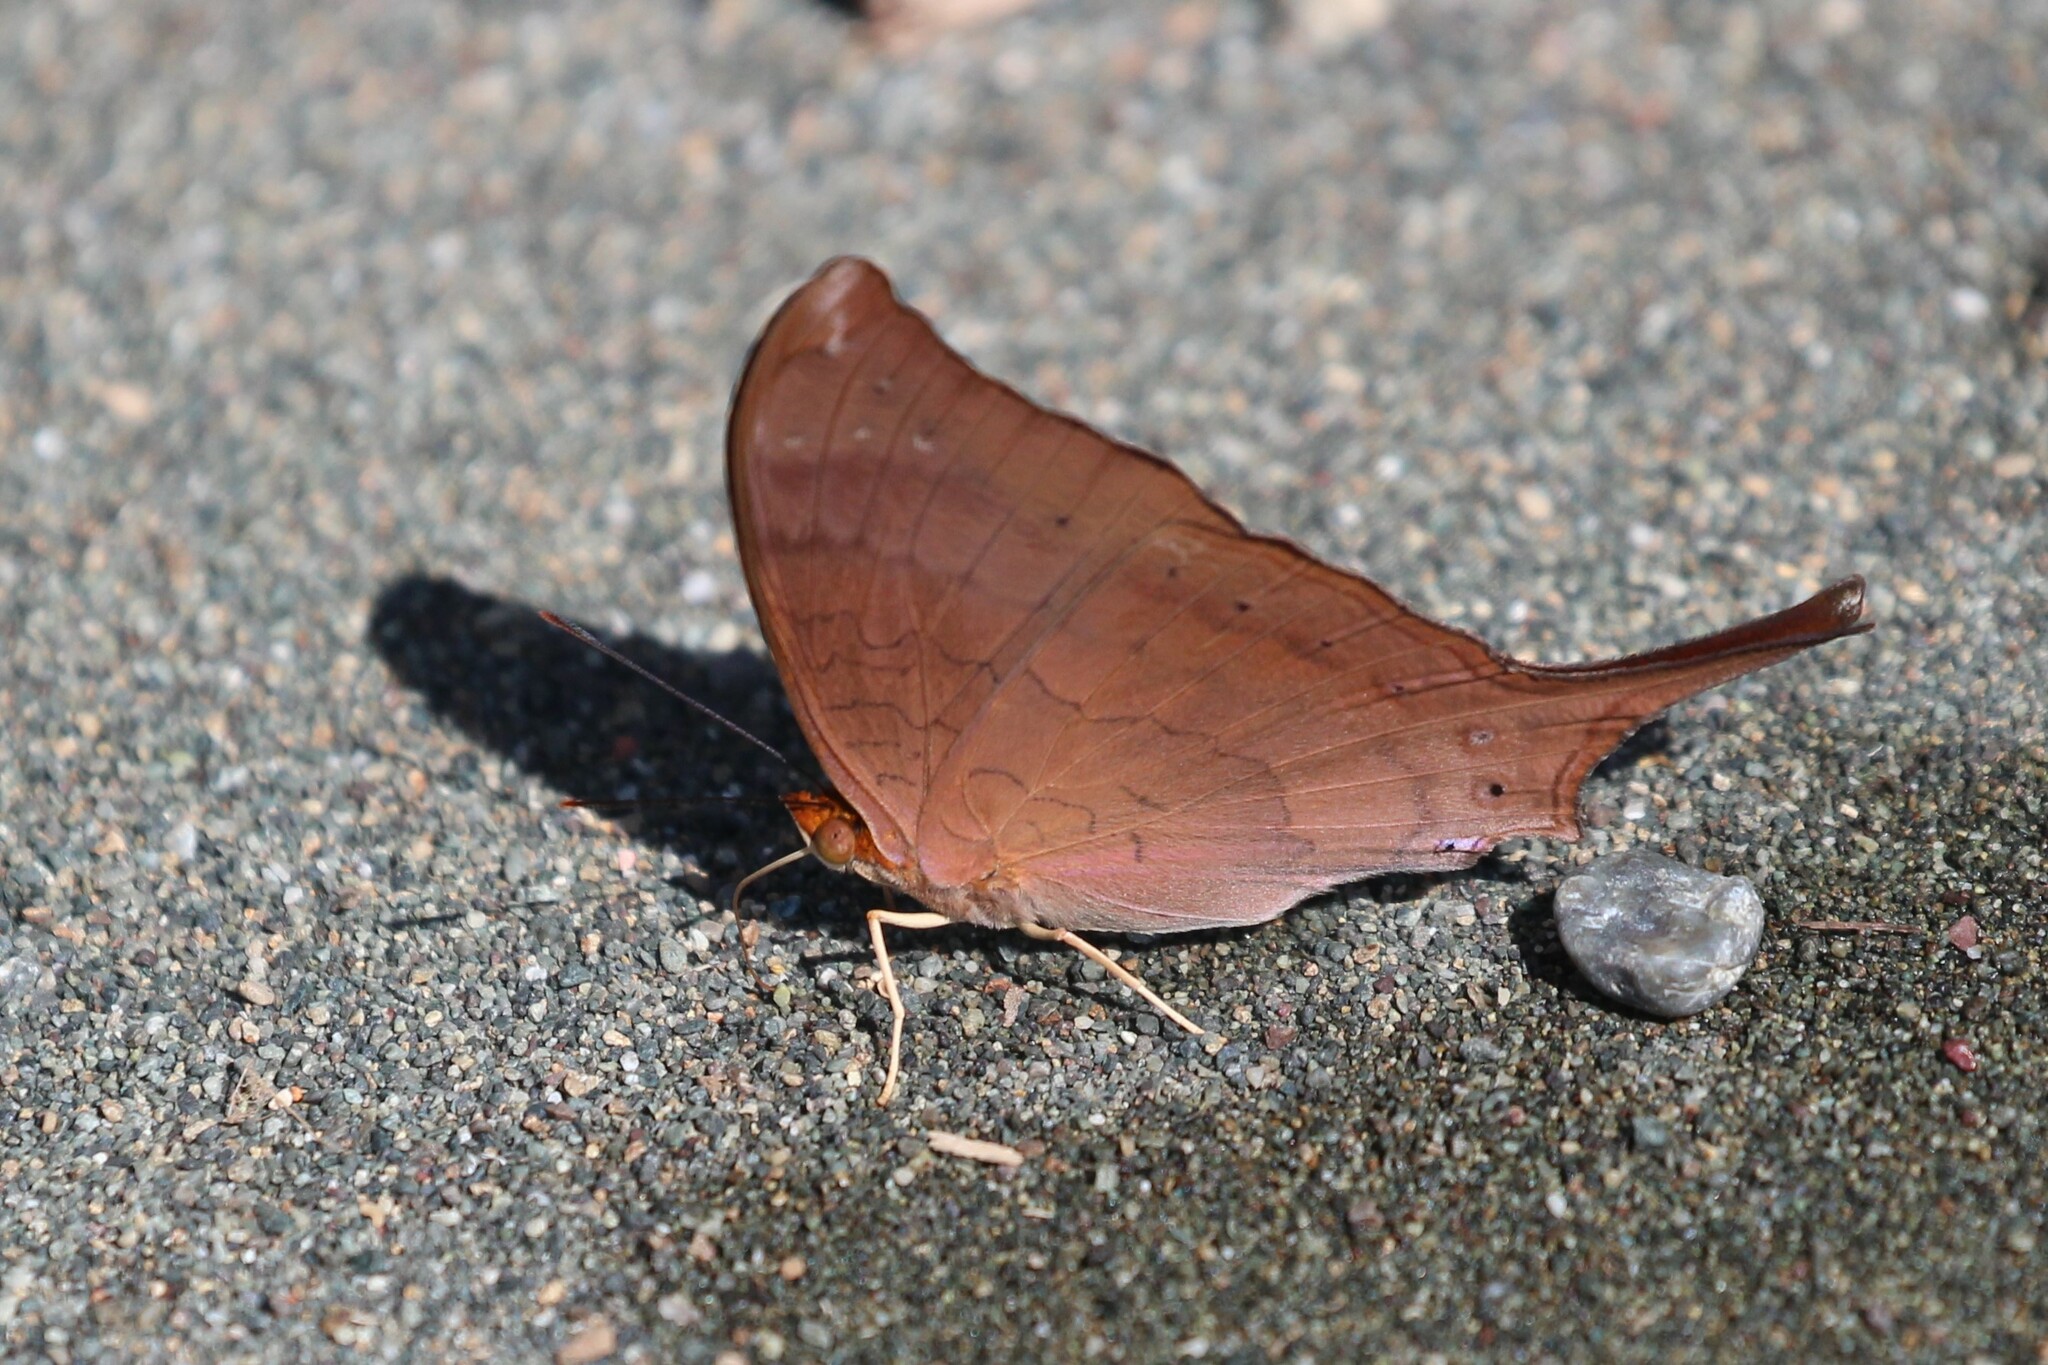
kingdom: Animalia
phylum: Arthropoda
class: Insecta
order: Lepidoptera
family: Nymphalidae
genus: Marpesia
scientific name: Marpesia furcula
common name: Sunset daggerwing
